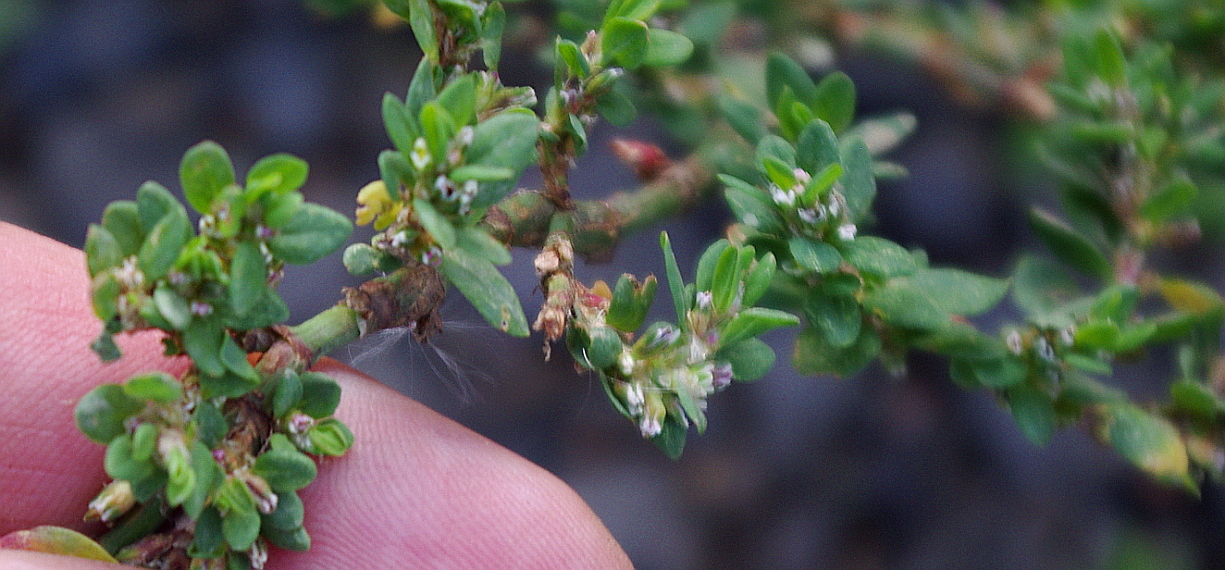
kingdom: Plantae
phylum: Tracheophyta
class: Magnoliopsida
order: Caryophyllales
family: Polygonaceae
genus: Polygonum
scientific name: Polygonum
